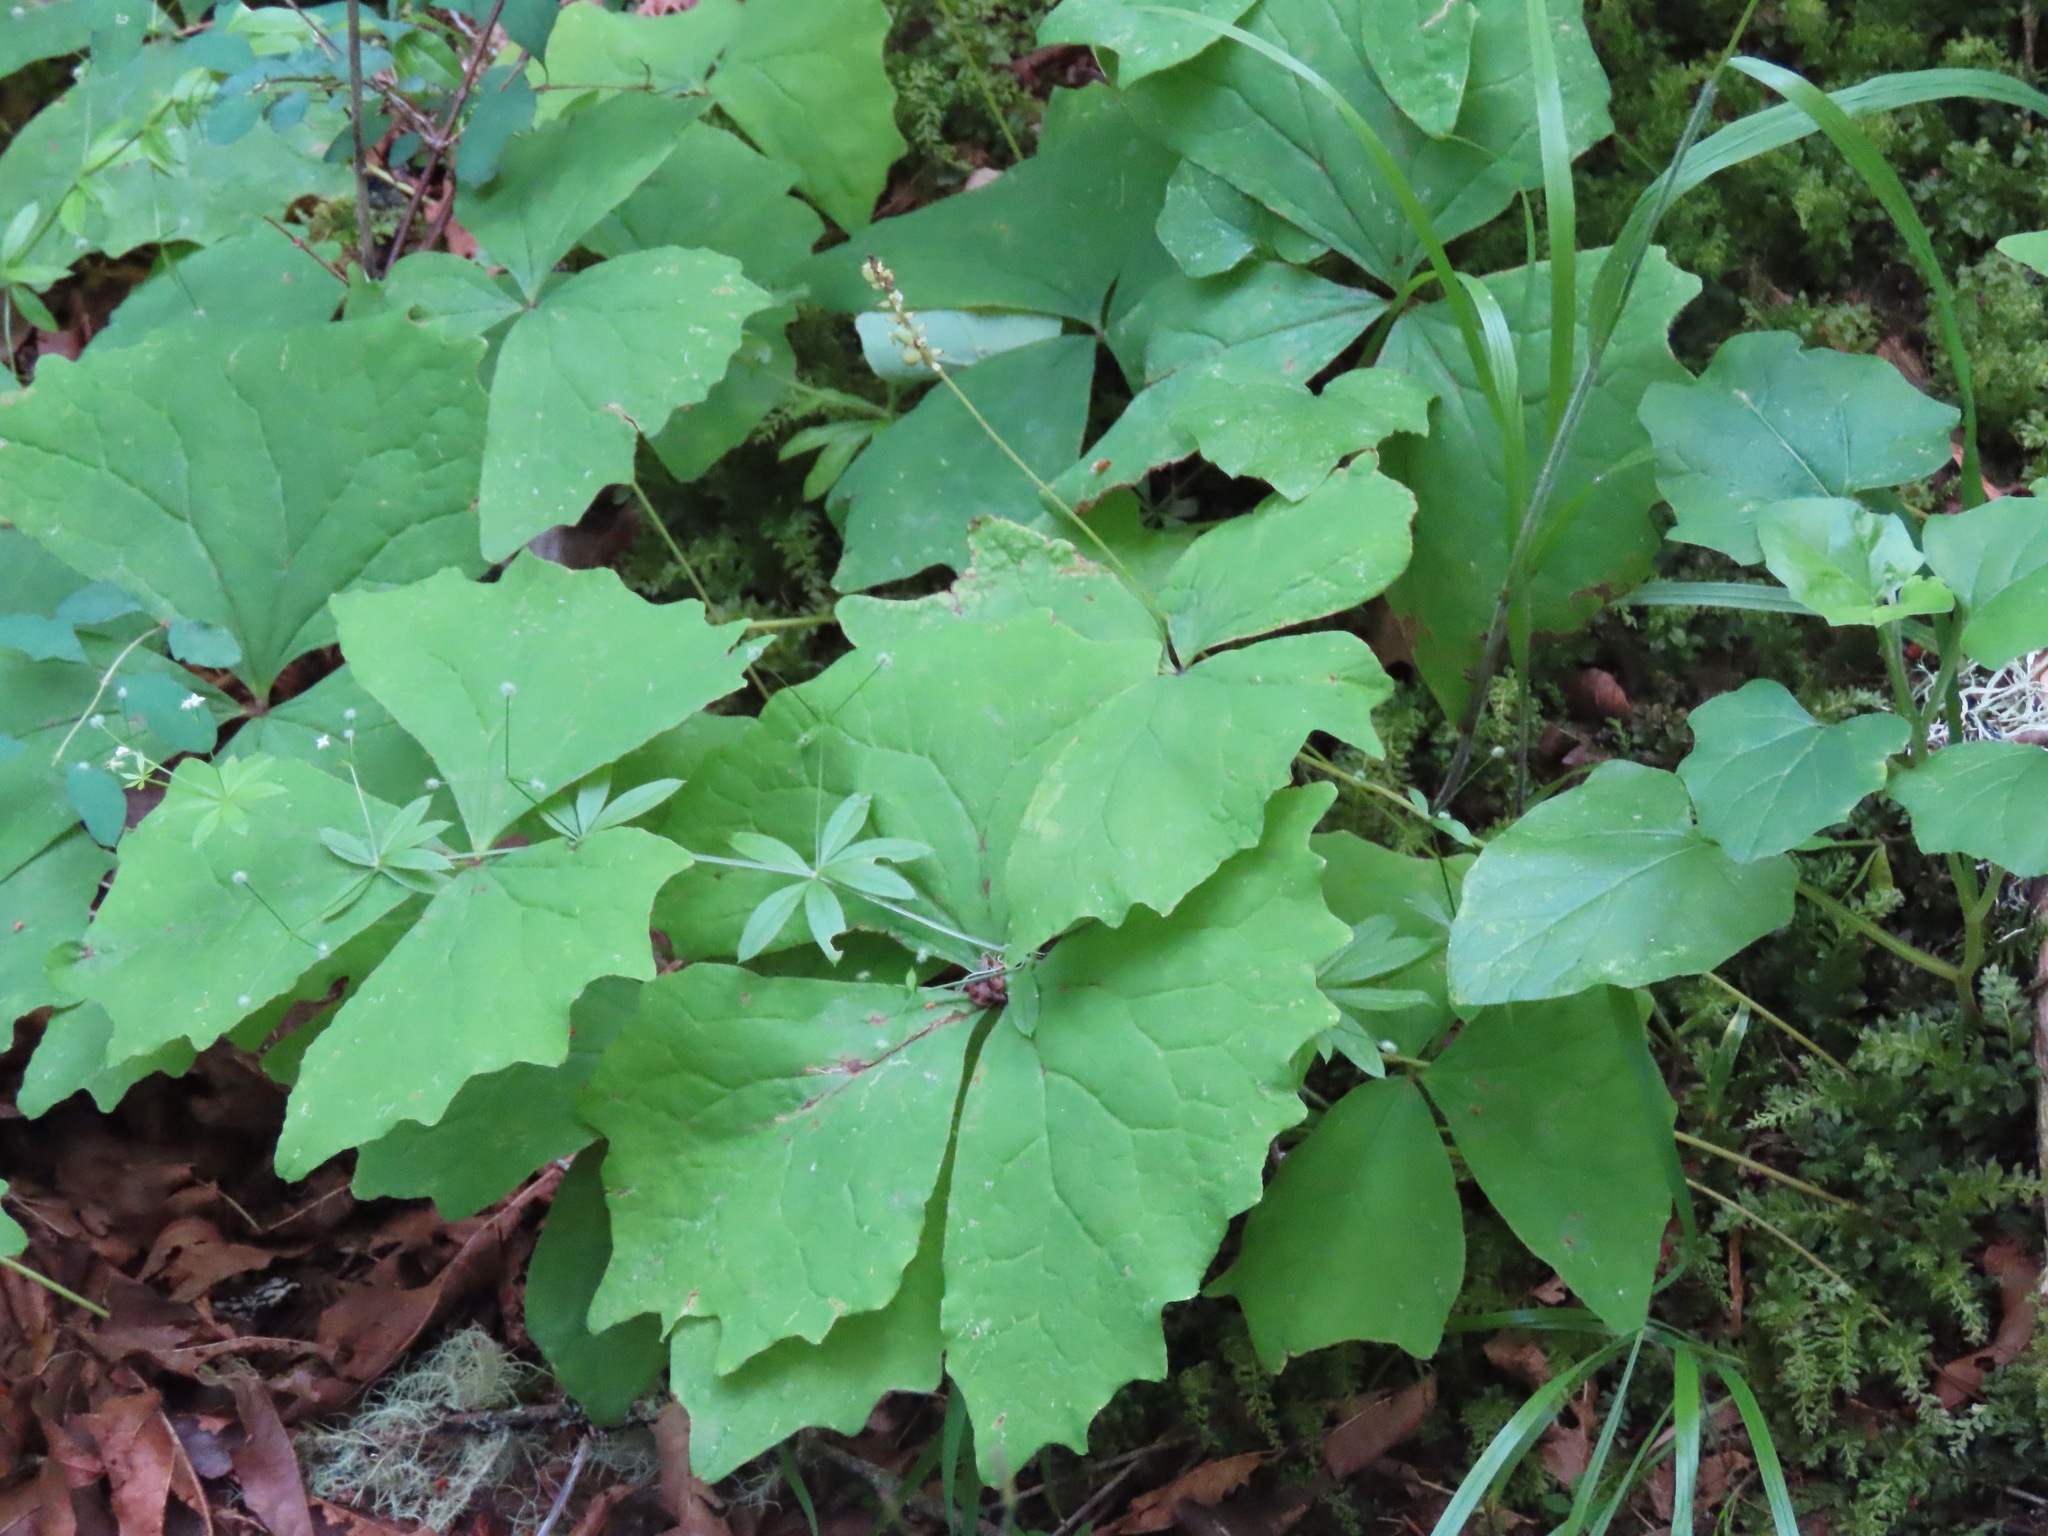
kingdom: Plantae
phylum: Tracheophyta
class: Magnoliopsida
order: Ranunculales
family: Berberidaceae
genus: Achlys
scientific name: Achlys triphylla
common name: Vanilla-leaf
